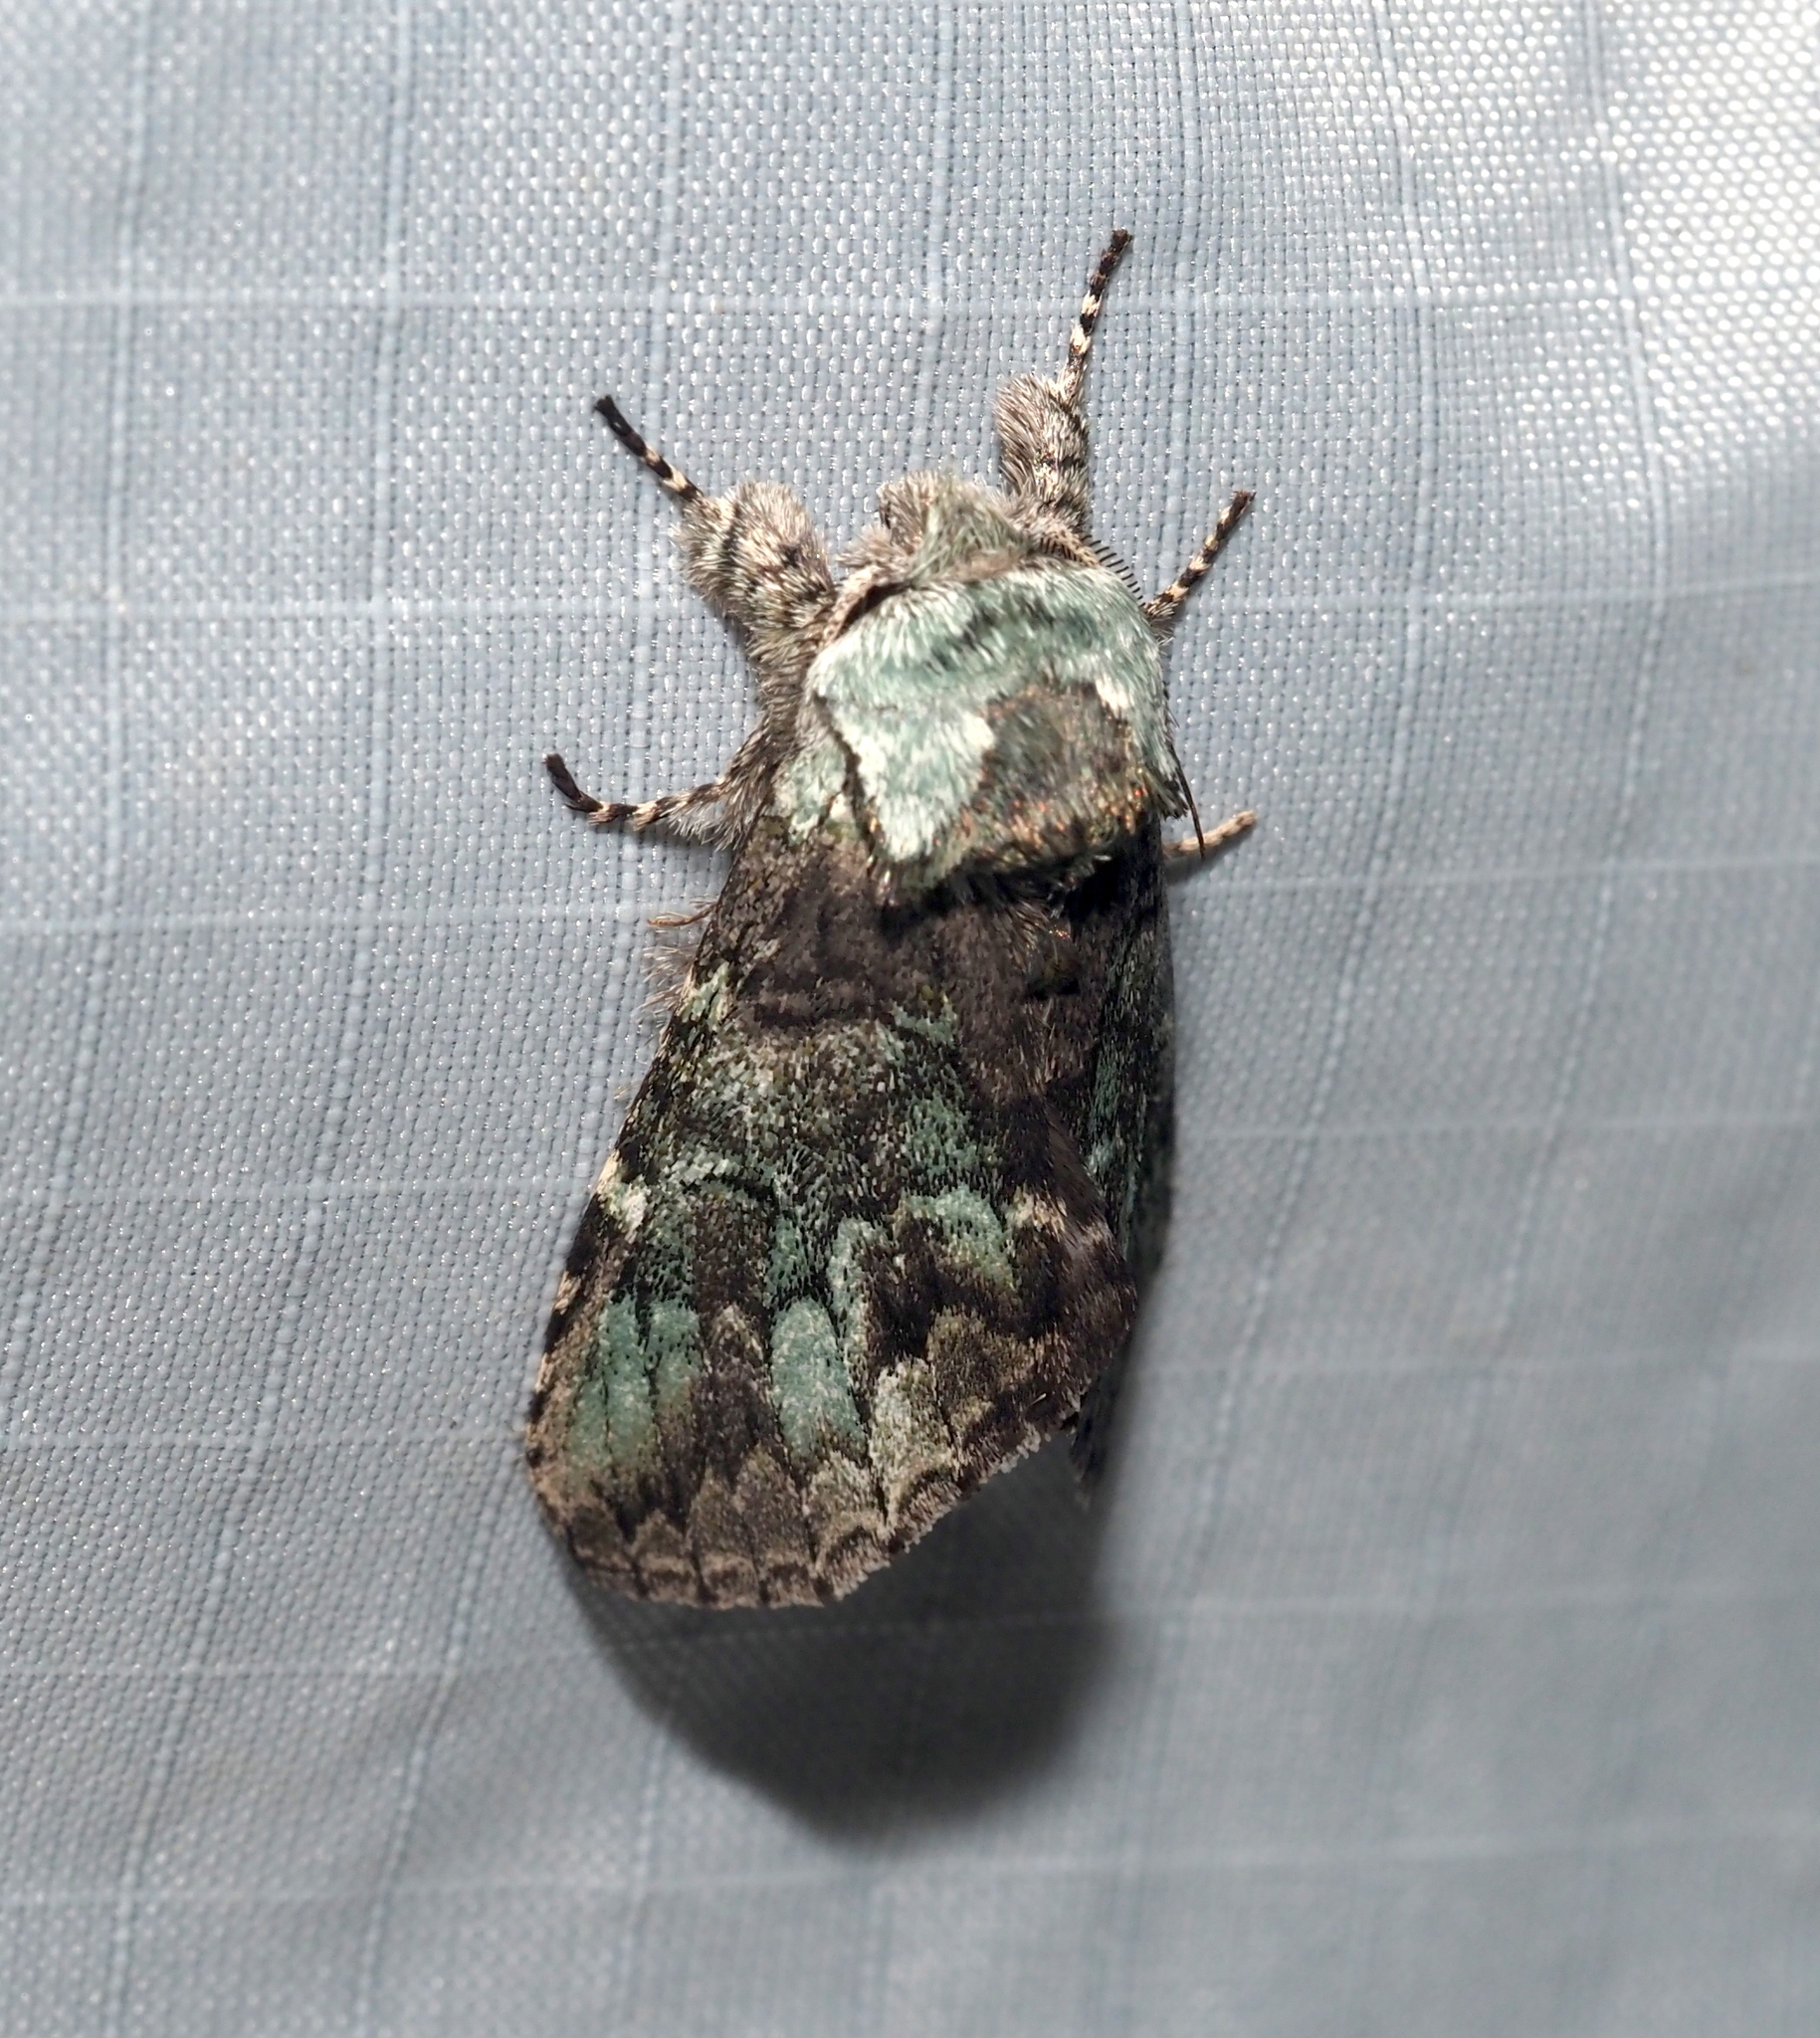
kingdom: Animalia
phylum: Arthropoda
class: Insecta
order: Lepidoptera
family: Notodontidae
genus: Macrurocampa
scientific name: Macrurocampa marthesia
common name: Mottled prominent
